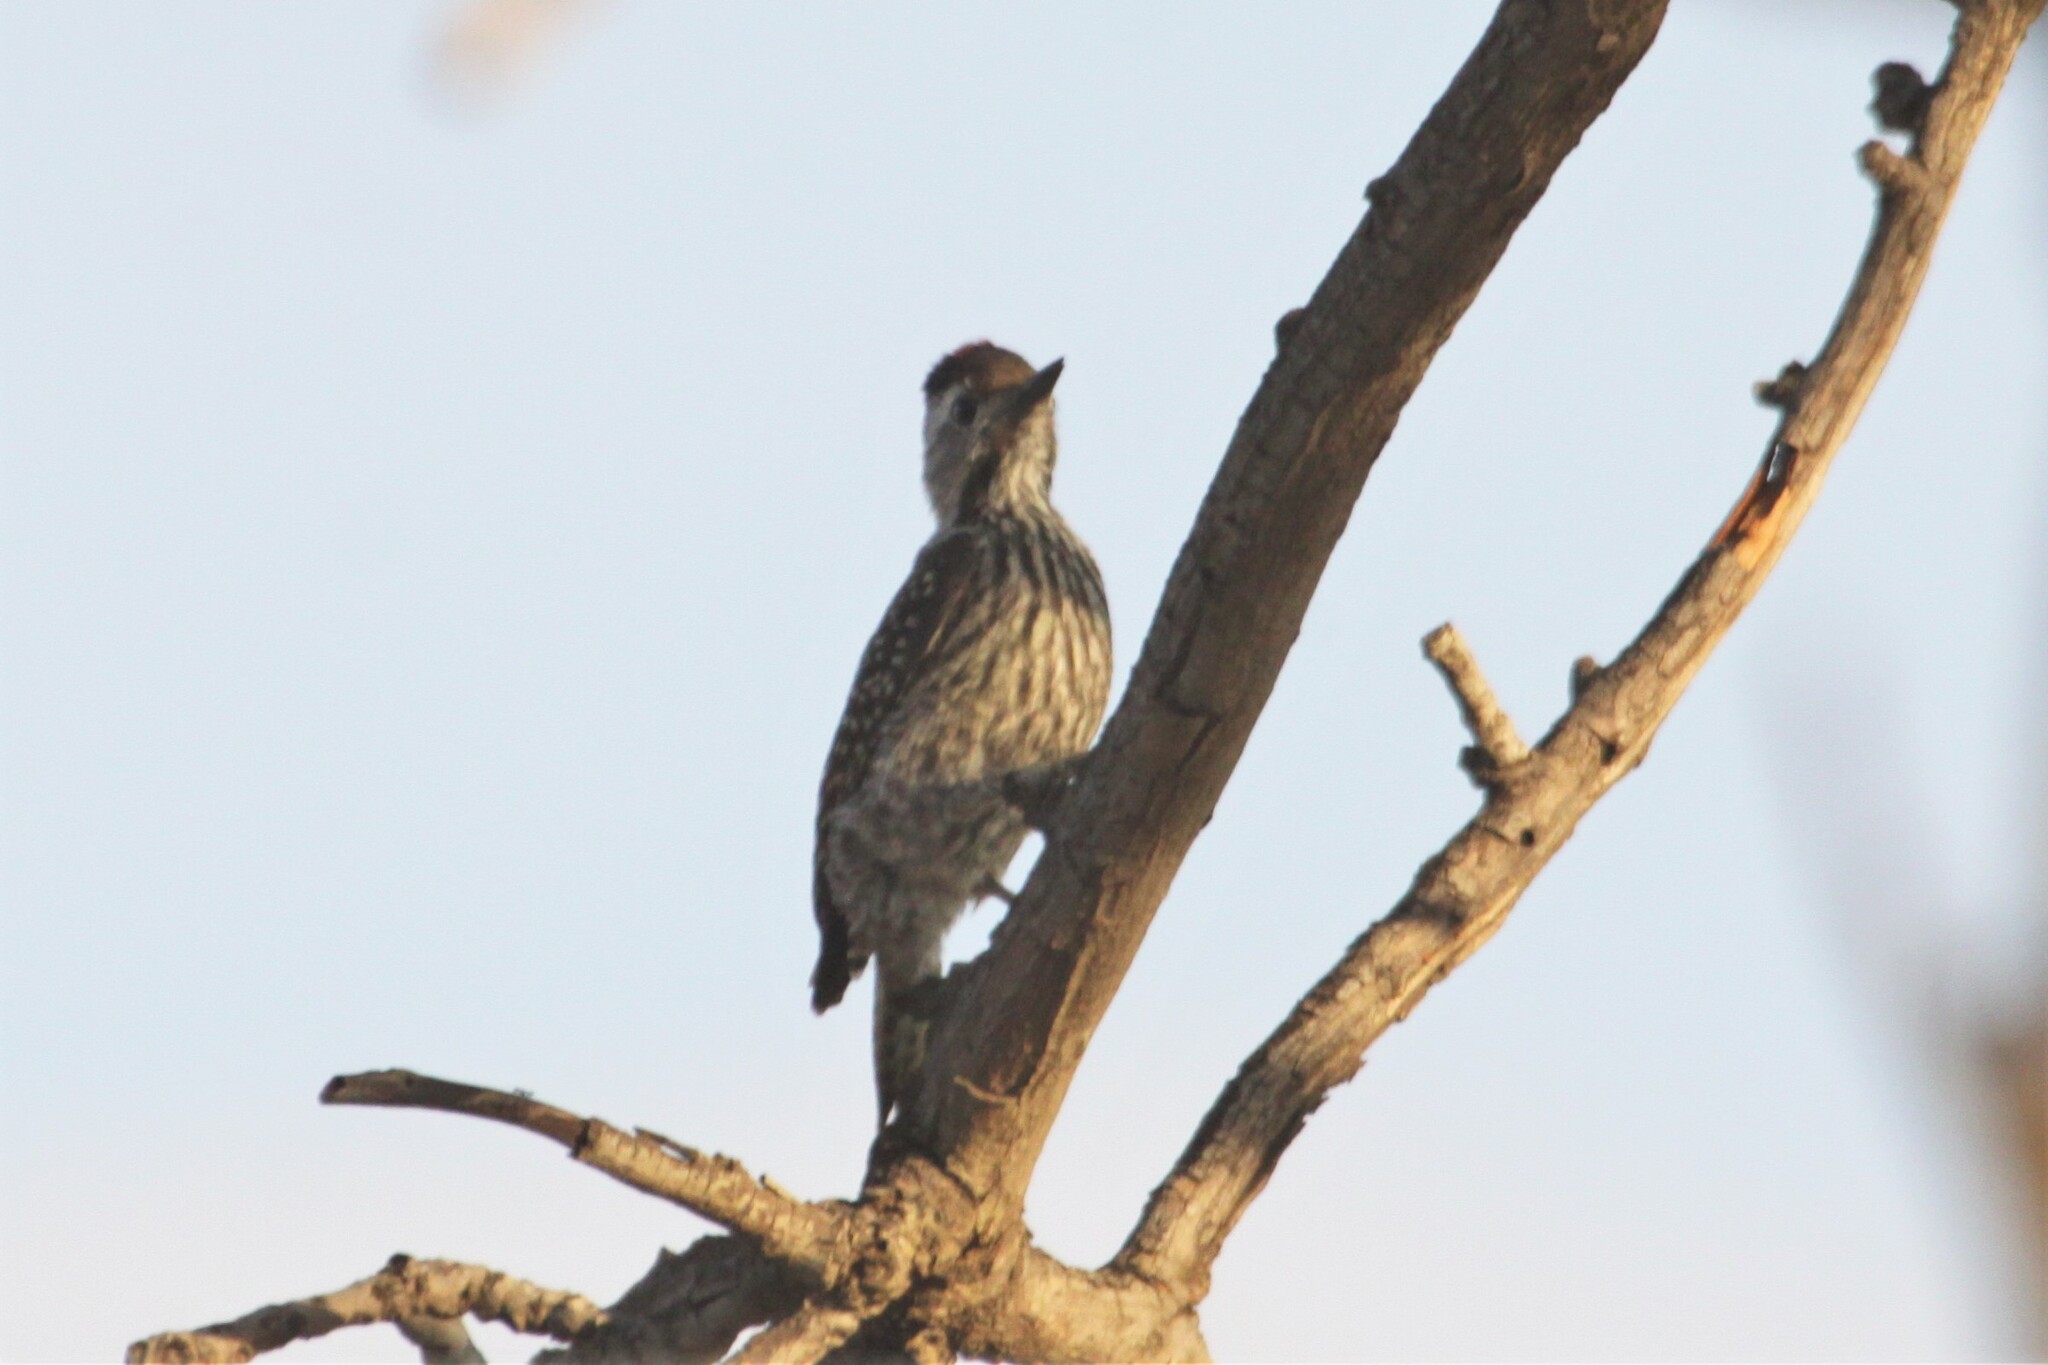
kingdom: Animalia
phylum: Chordata
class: Aves
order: Piciformes
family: Picidae
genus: Dendropicos
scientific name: Dendropicos fuscescens
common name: Cardinal woodpecker
